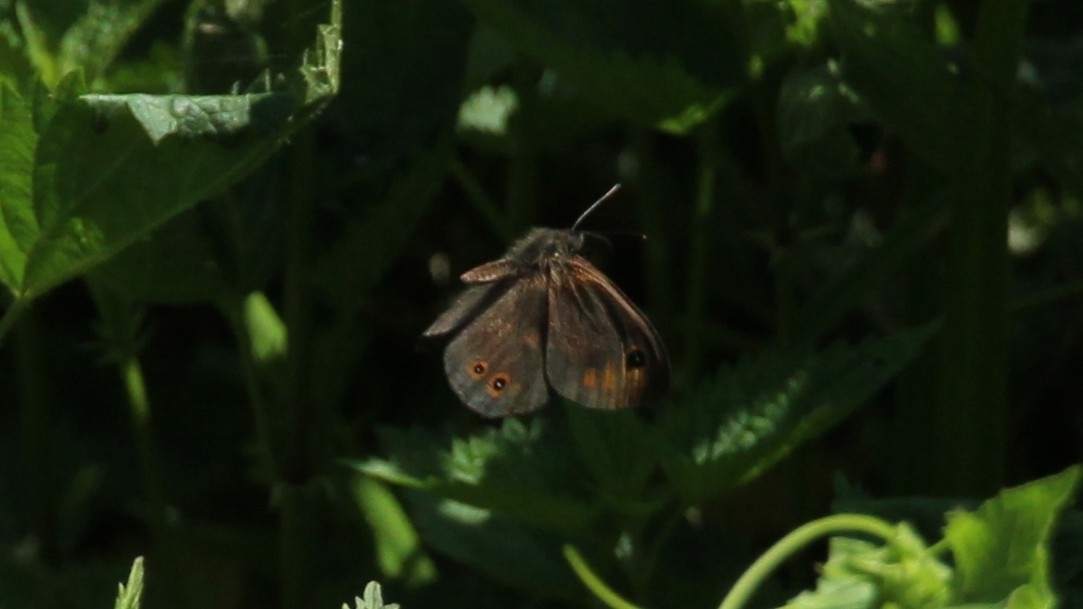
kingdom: Animalia
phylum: Arthropoda
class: Insecta
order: Lepidoptera
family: Nymphalidae
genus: Pararge
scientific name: Pararge Lasiommata maera
